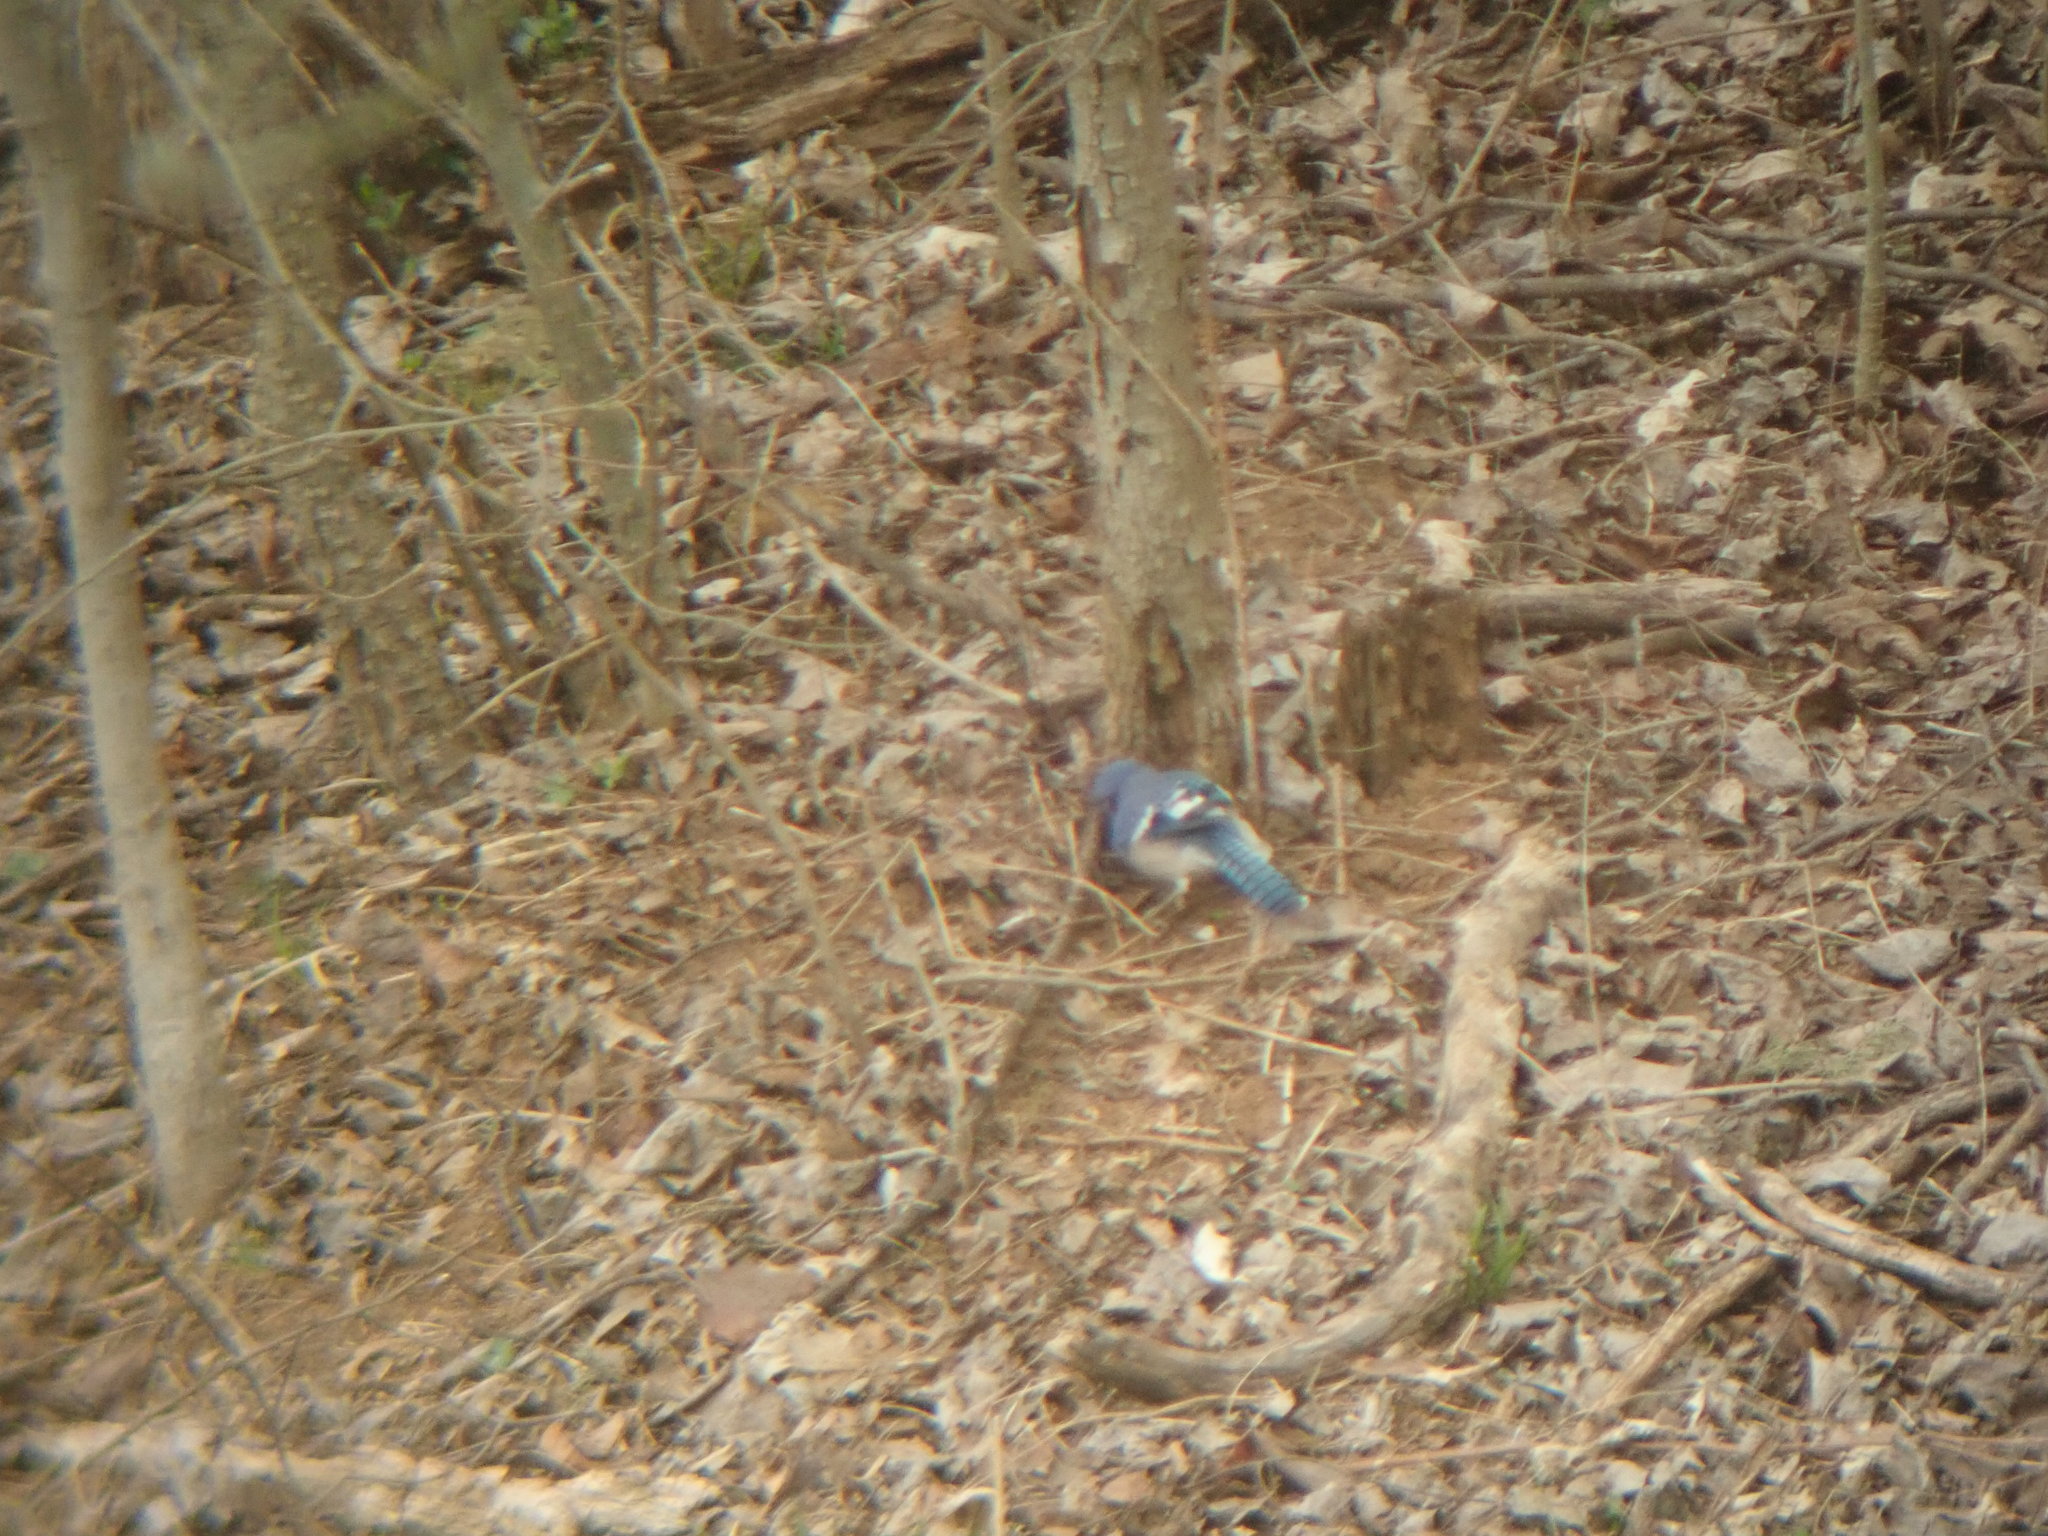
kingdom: Animalia
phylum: Chordata
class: Aves
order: Passeriformes
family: Corvidae
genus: Cyanocitta
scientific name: Cyanocitta cristata
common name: Blue jay
